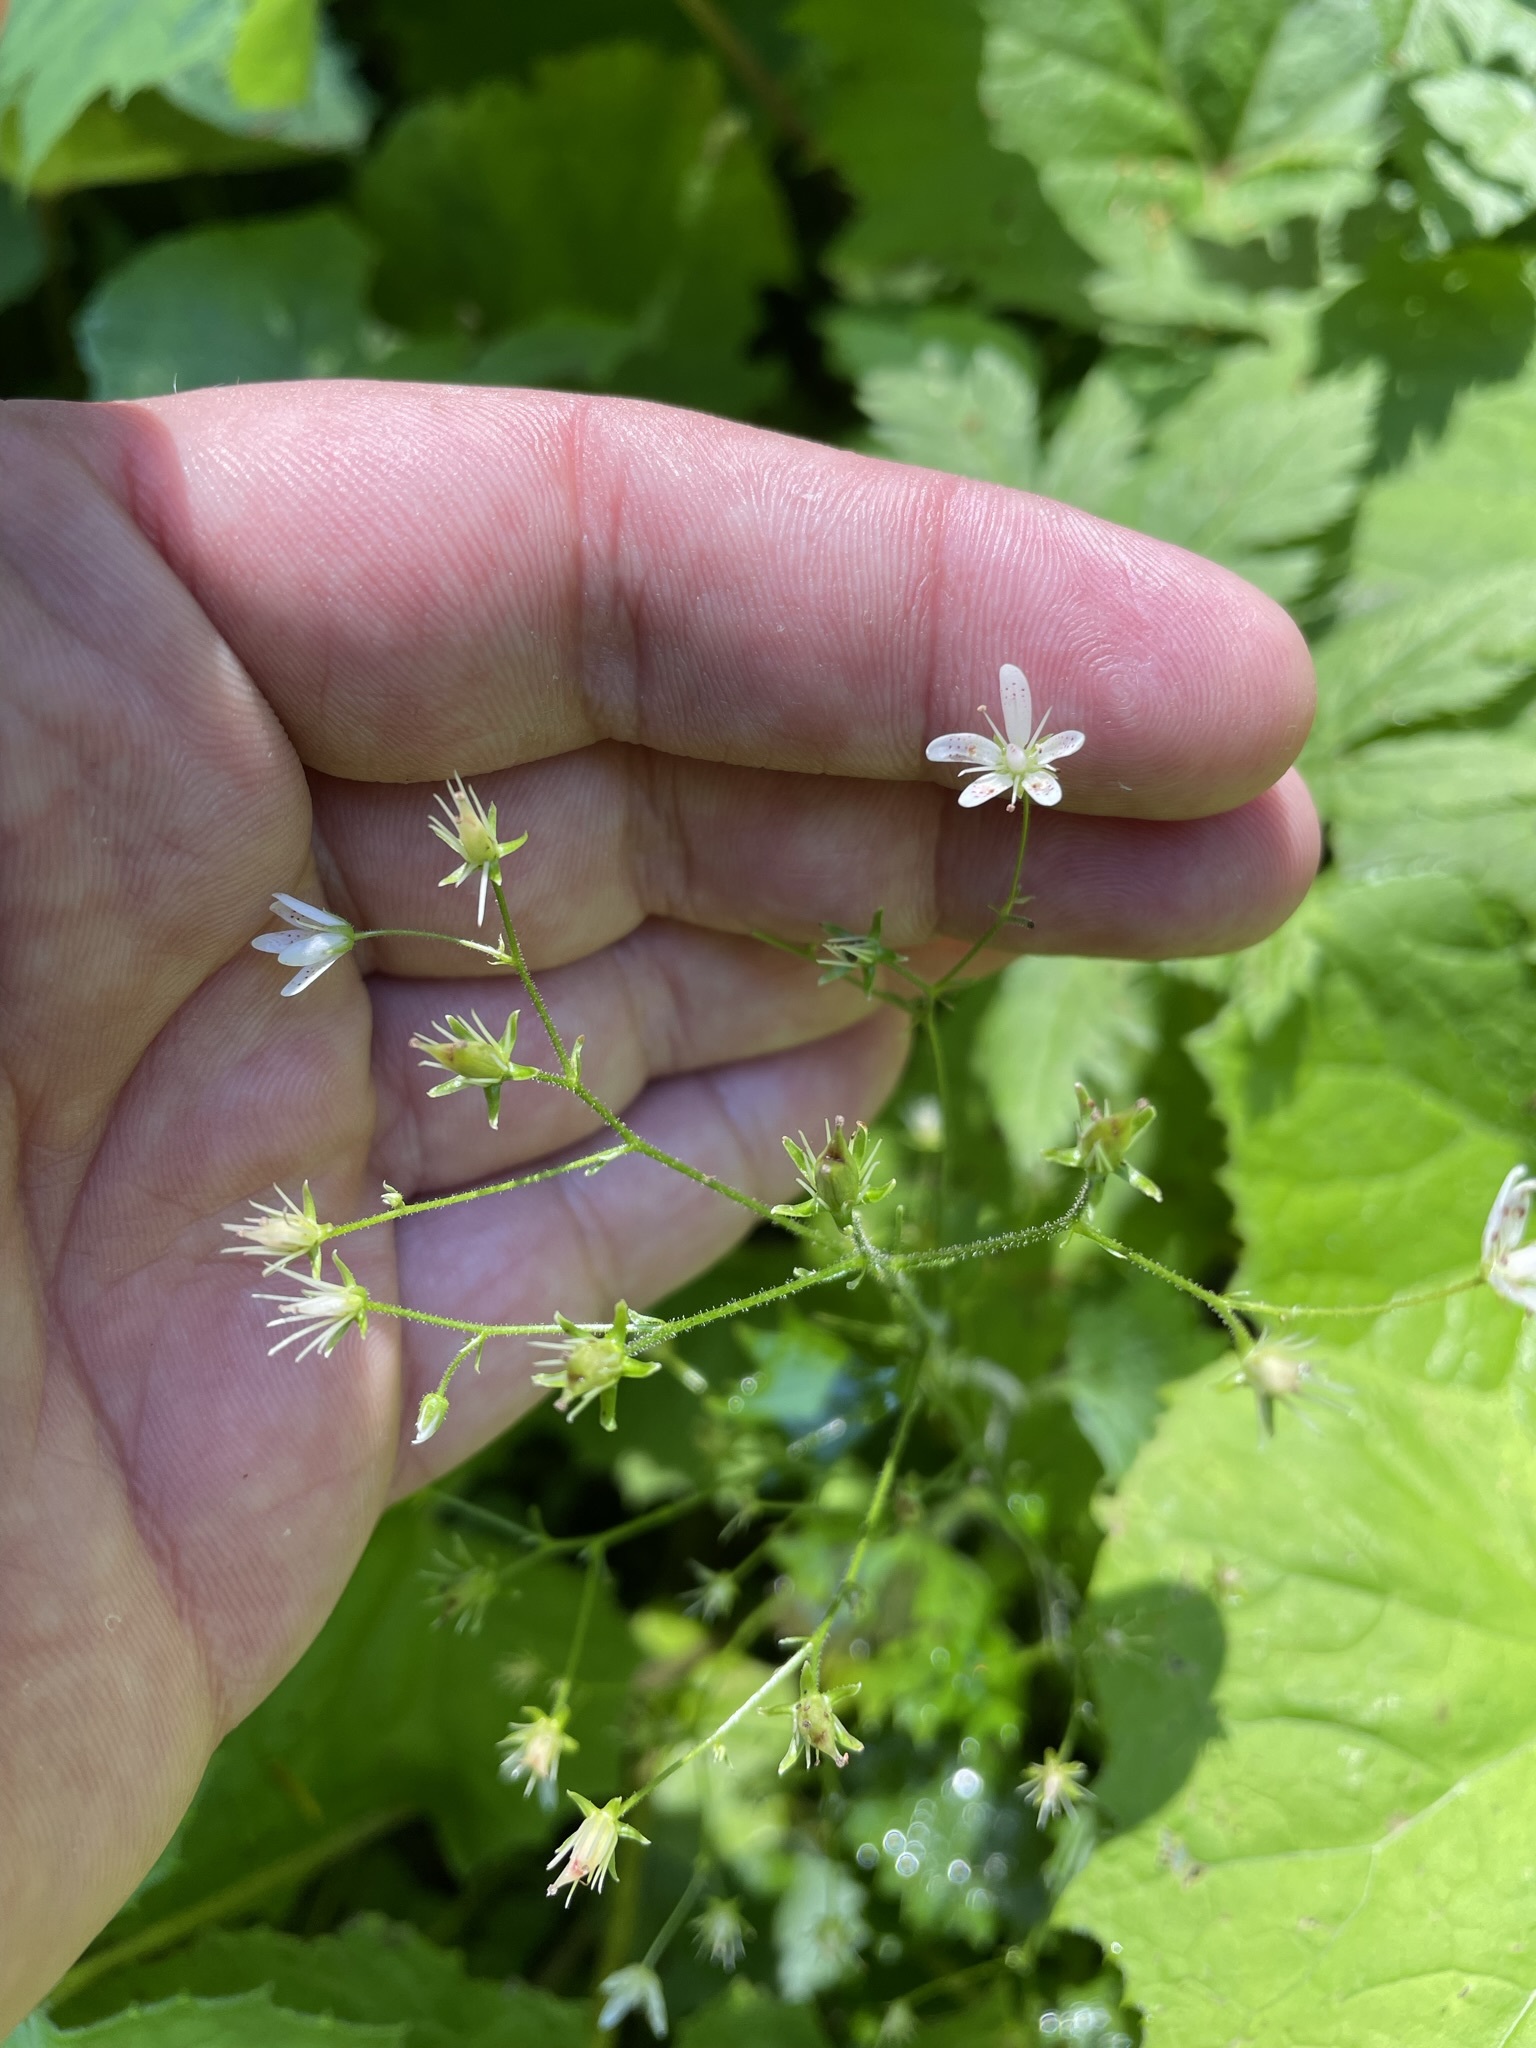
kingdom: Plantae
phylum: Tracheophyta
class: Magnoliopsida
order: Saxifragales
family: Saxifragaceae
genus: Saxifraga
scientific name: Saxifraga rotundifolia
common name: Round-leaved saxifrage
